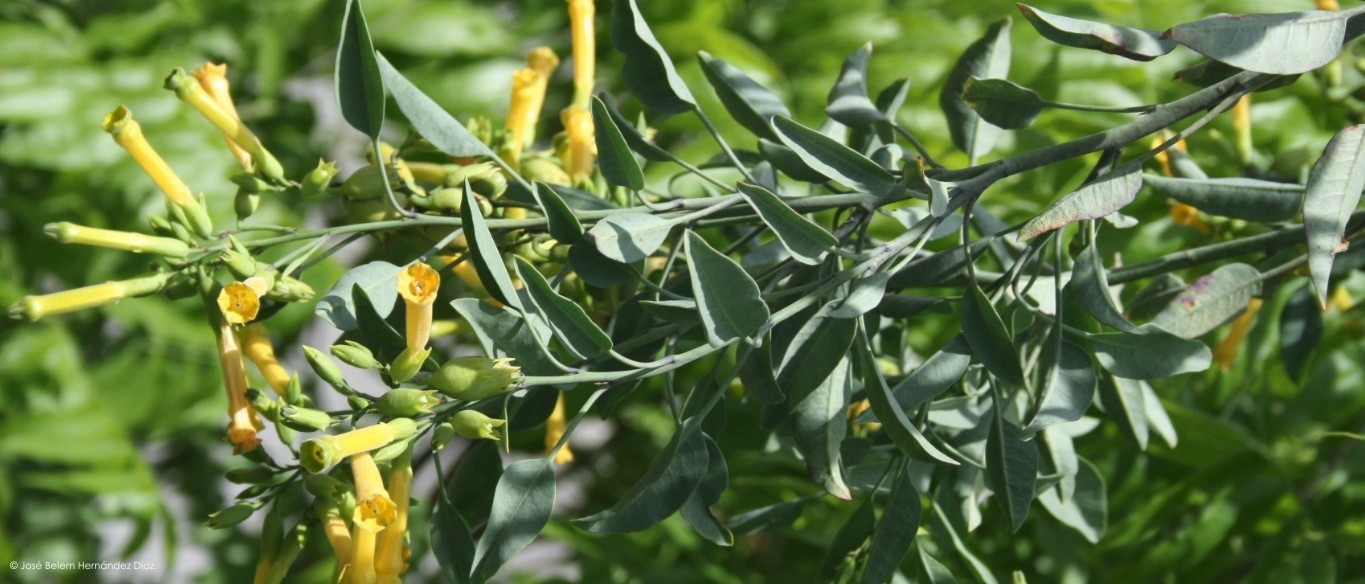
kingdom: Plantae
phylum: Tracheophyta
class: Magnoliopsida
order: Solanales
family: Solanaceae
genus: Nicotiana
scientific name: Nicotiana glauca
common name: Tree tobacco
